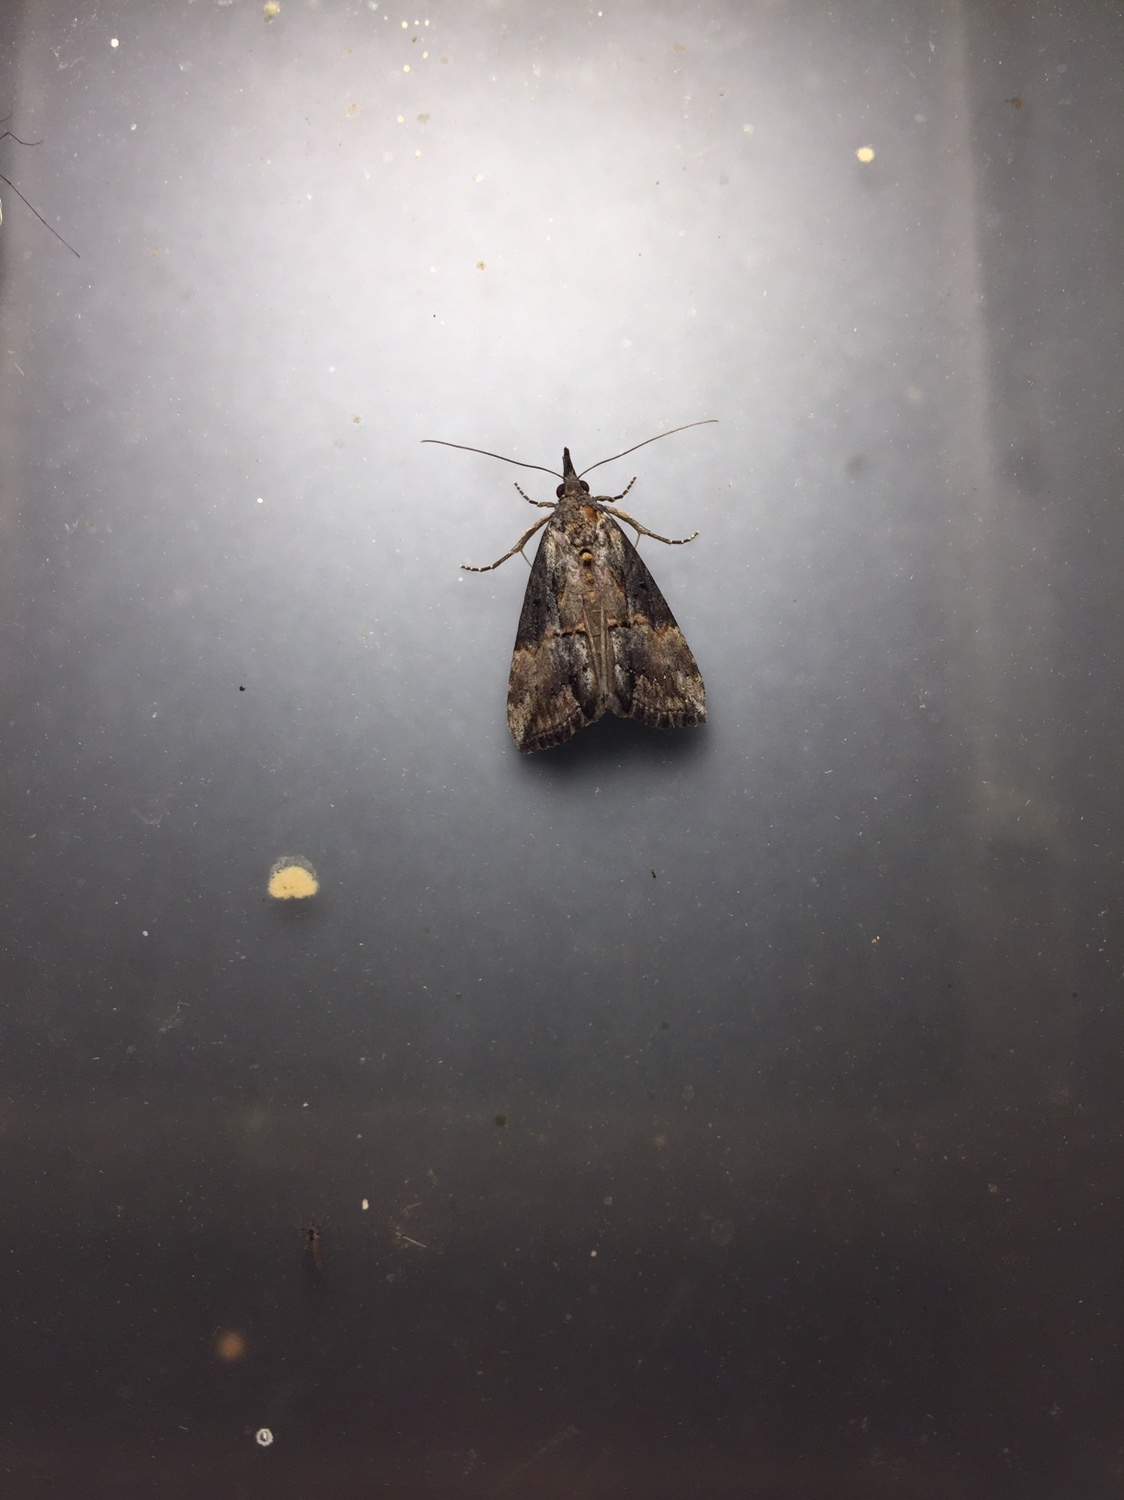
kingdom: Animalia
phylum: Arthropoda
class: Insecta
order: Lepidoptera
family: Erebidae
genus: Hypena
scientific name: Hypena scabra
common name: Green cloverworm
